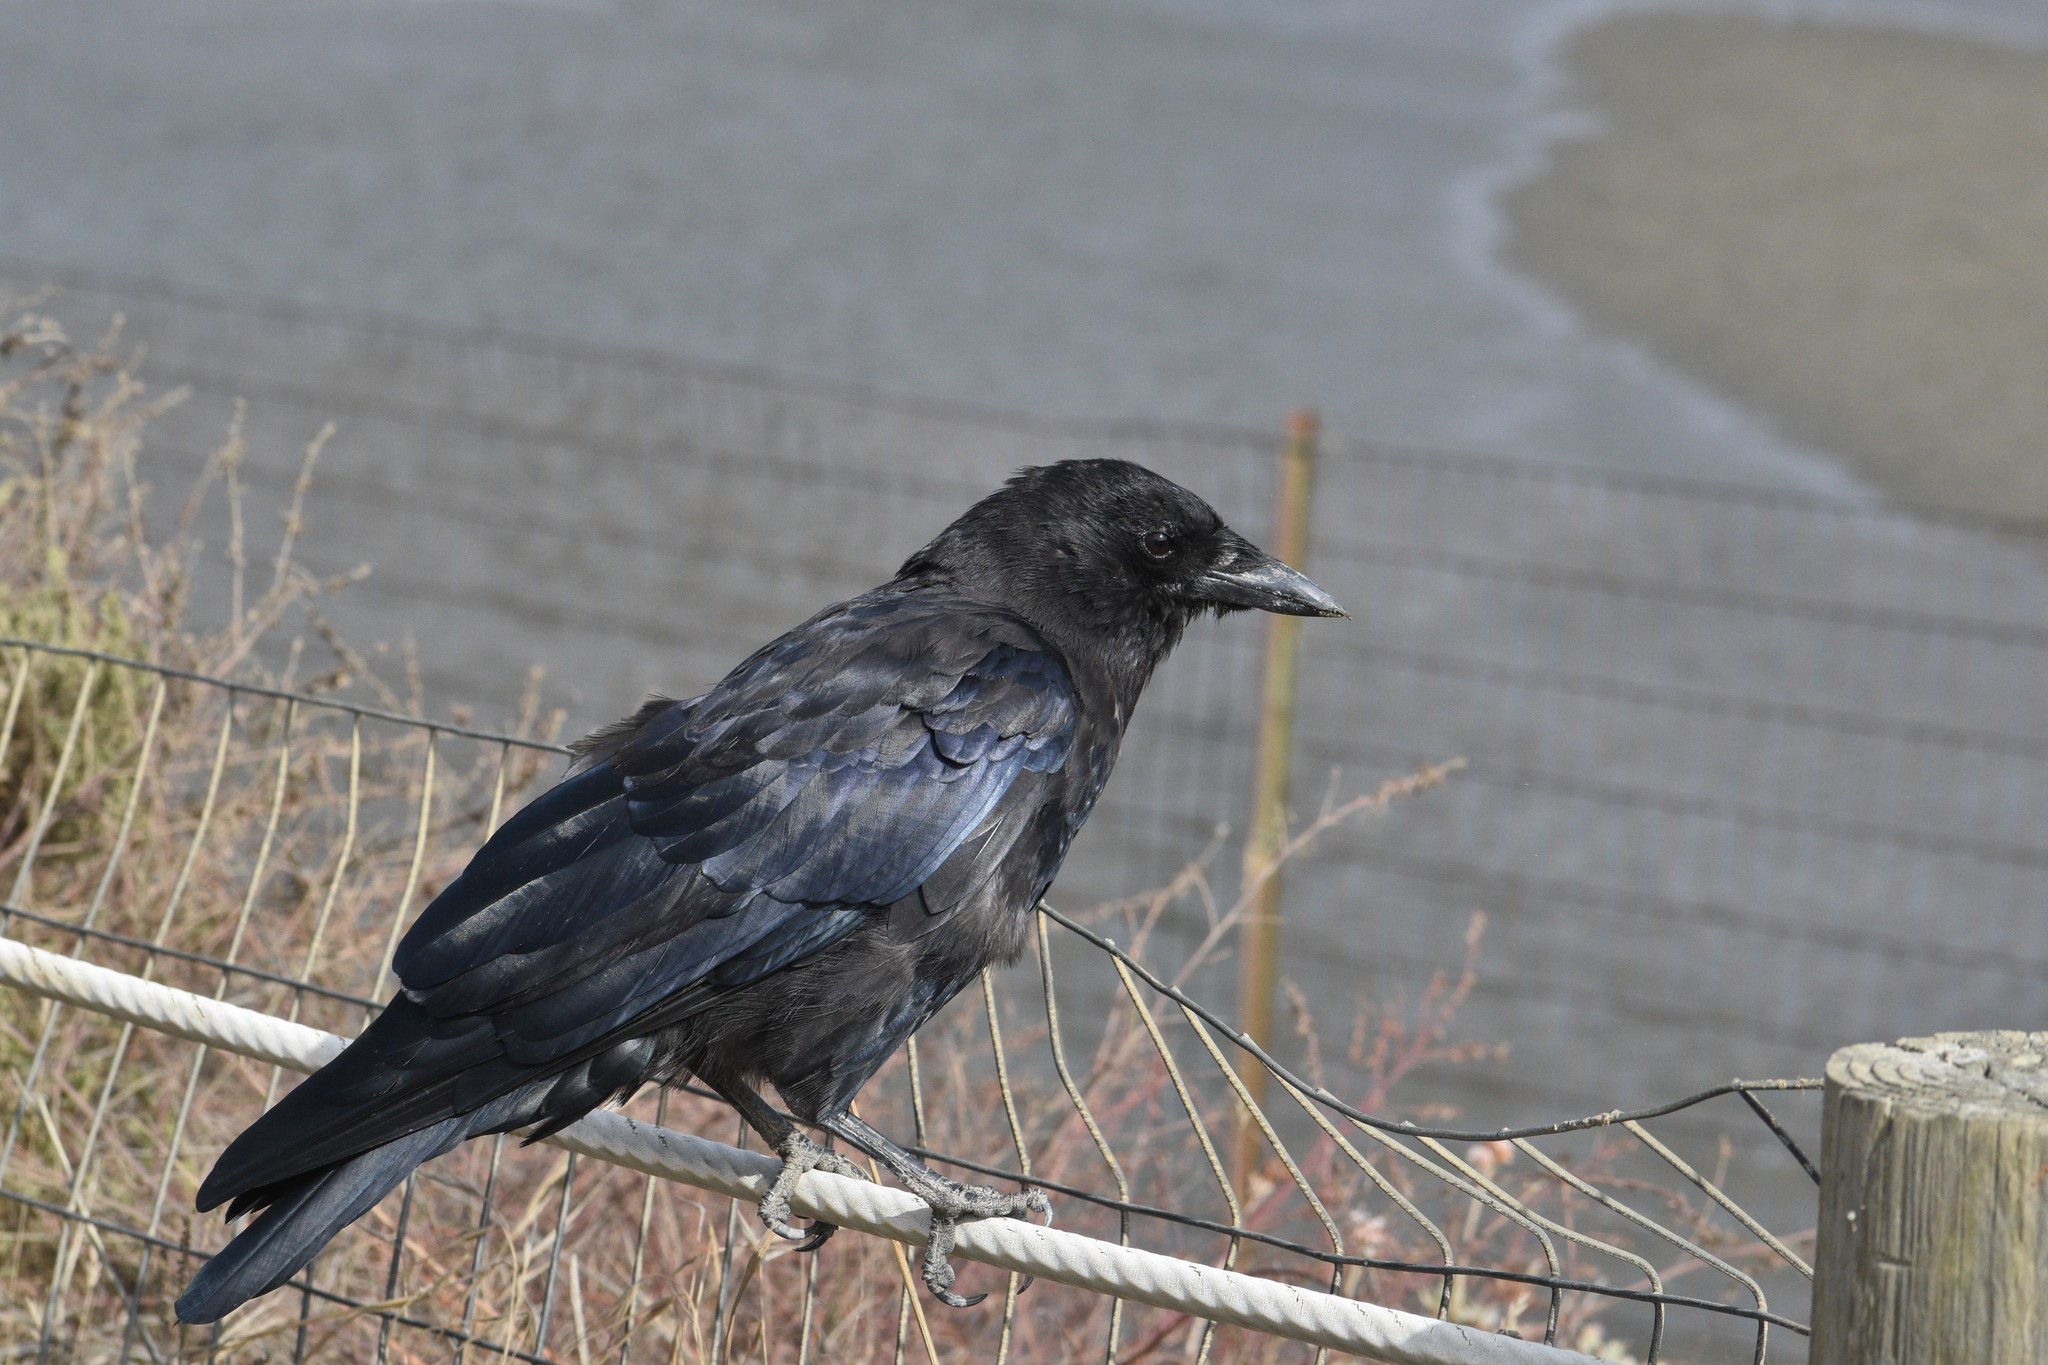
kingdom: Animalia
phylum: Chordata
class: Aves
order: Passeriformes
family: Corvidae
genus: Corvus
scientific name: Corvus brachyrhynchos
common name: American crow
